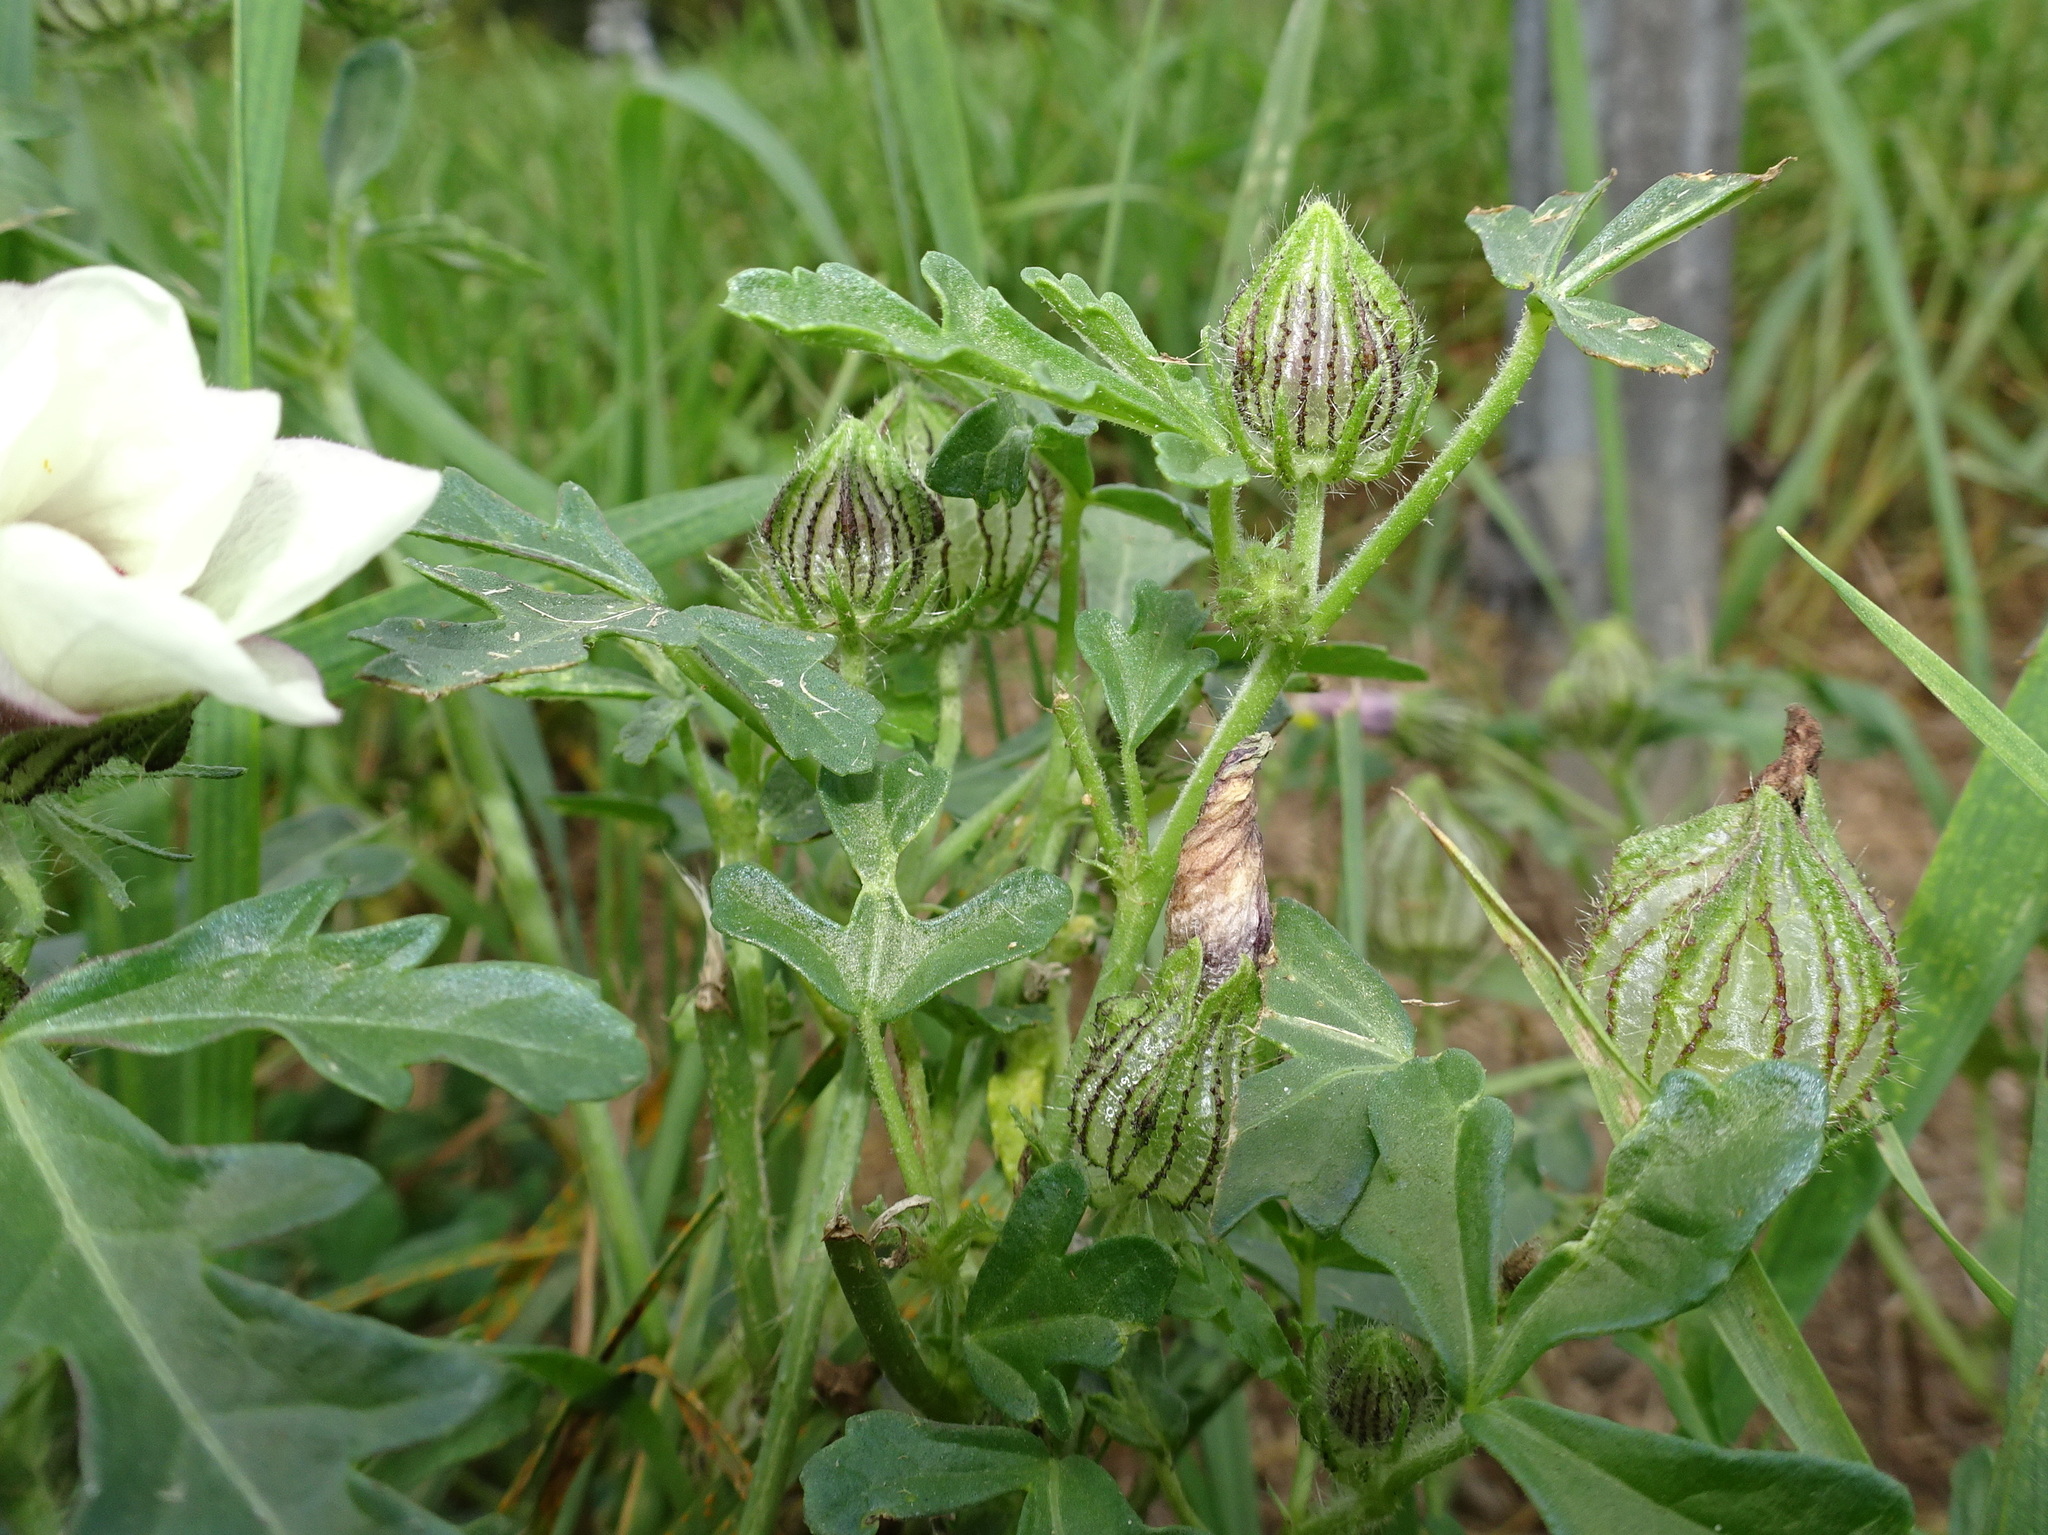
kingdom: Plantae
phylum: Tracheophyta
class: Magnoliopsida
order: Malvales
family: Malvaceae
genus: Hibiscus
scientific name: Hibiscus trionum
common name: Bladder ketmia
